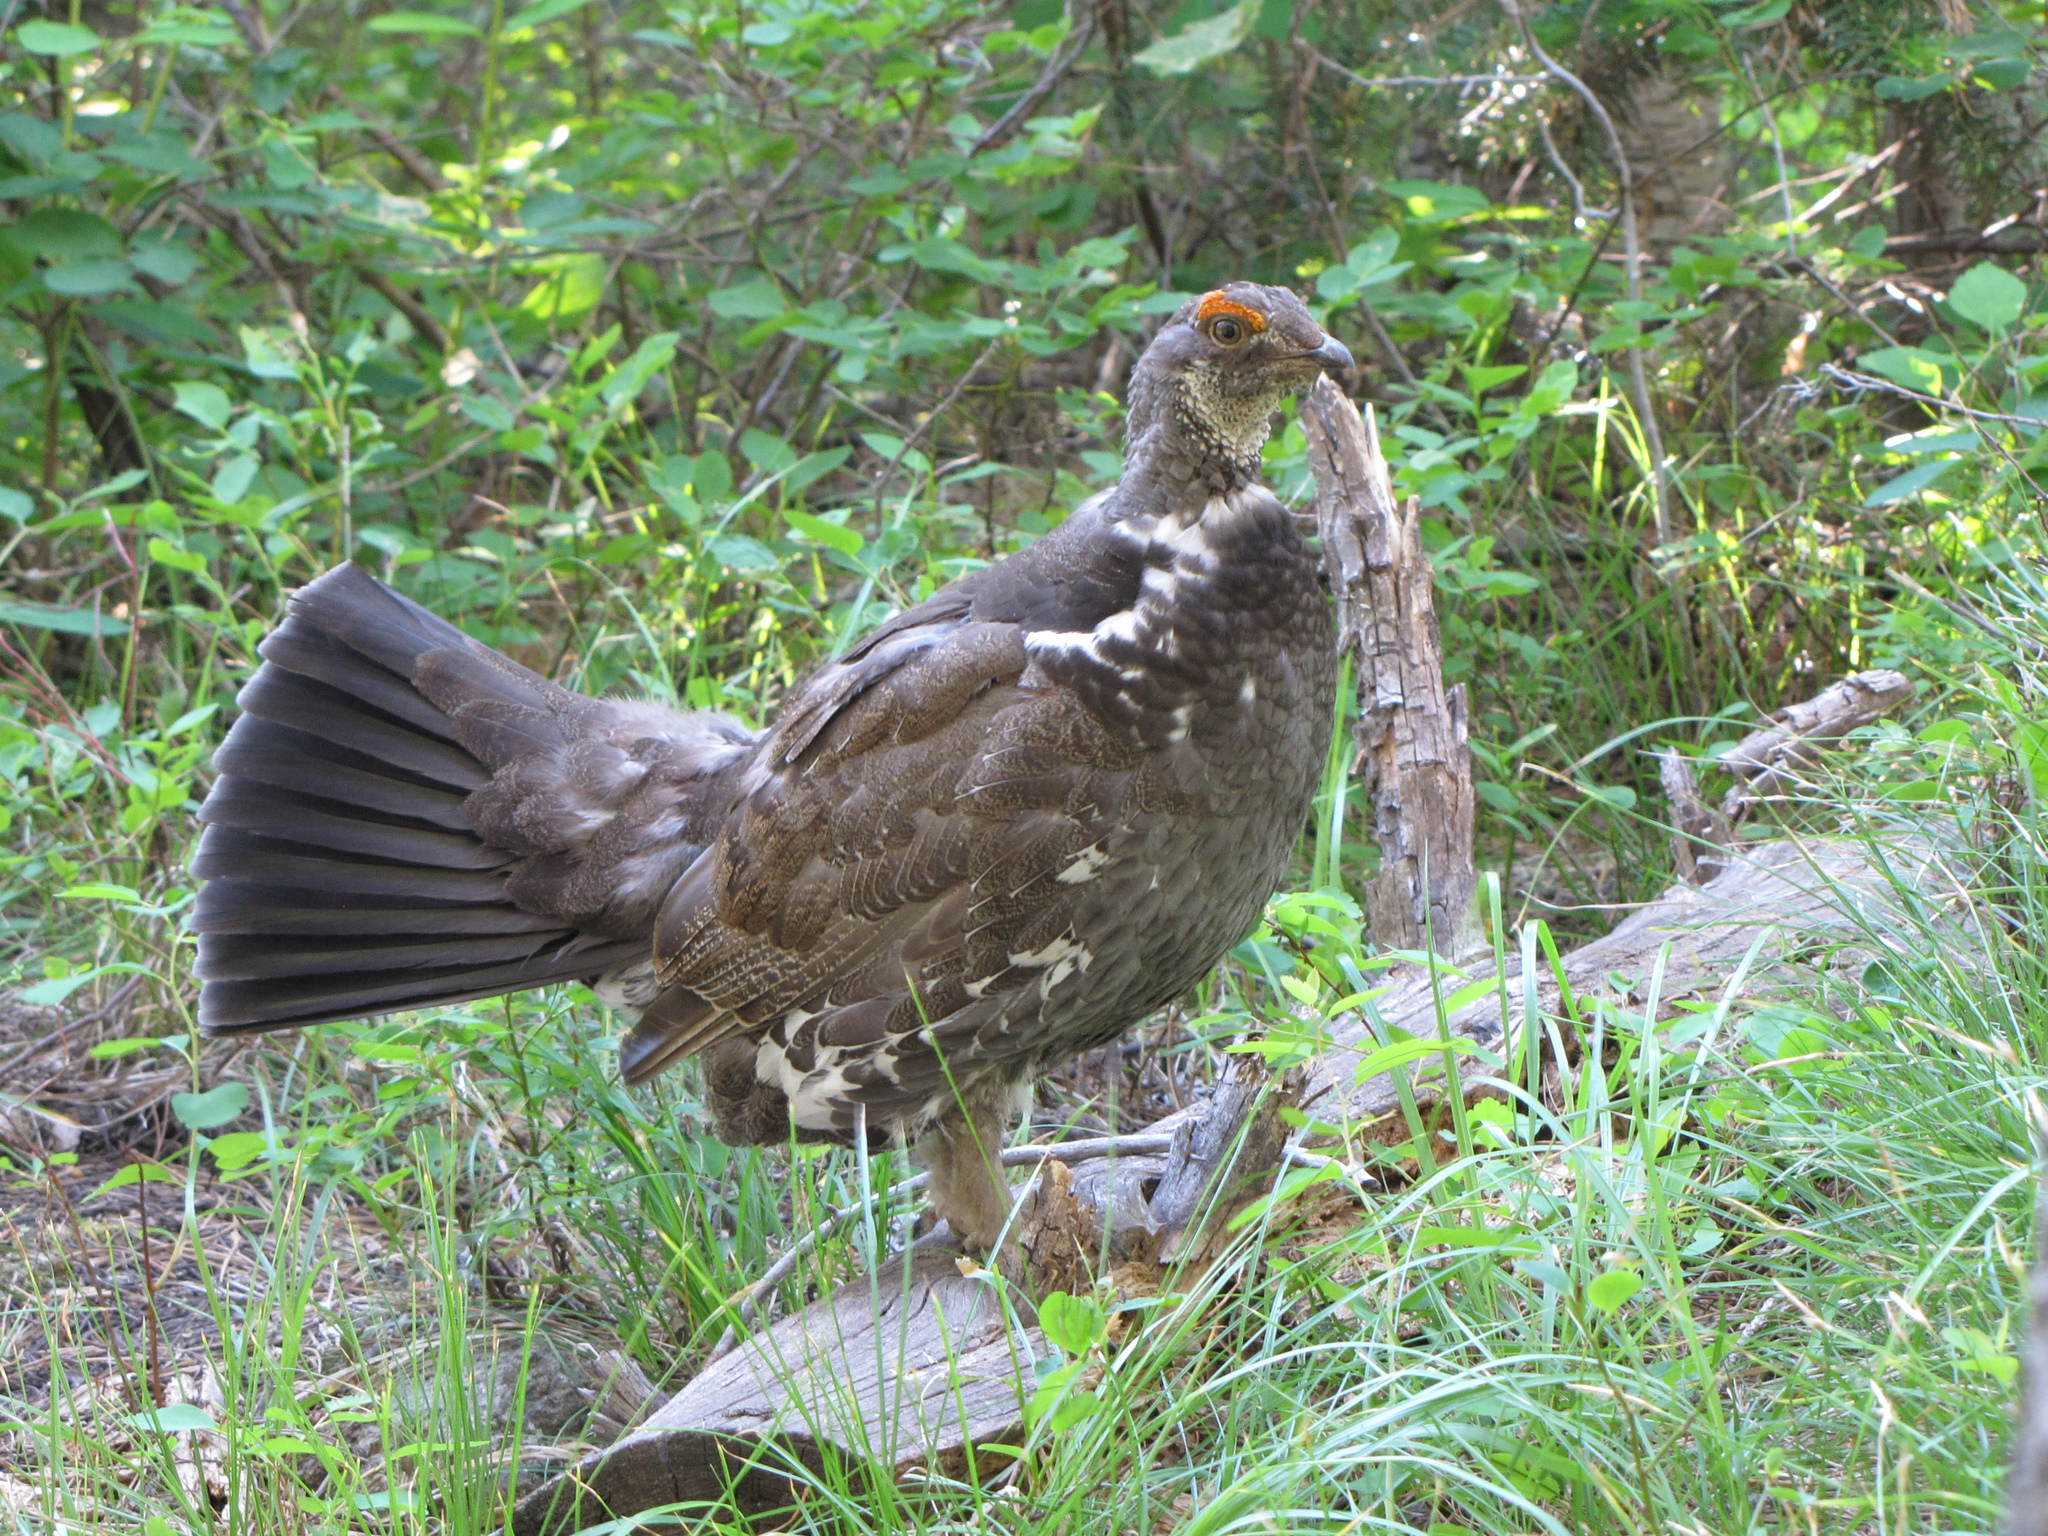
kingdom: Animalia
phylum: Chordata
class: Aves
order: Galliformes
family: Phasianidae
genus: Dendragapus
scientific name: Dendragapus obscurus
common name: Dusky grouse
